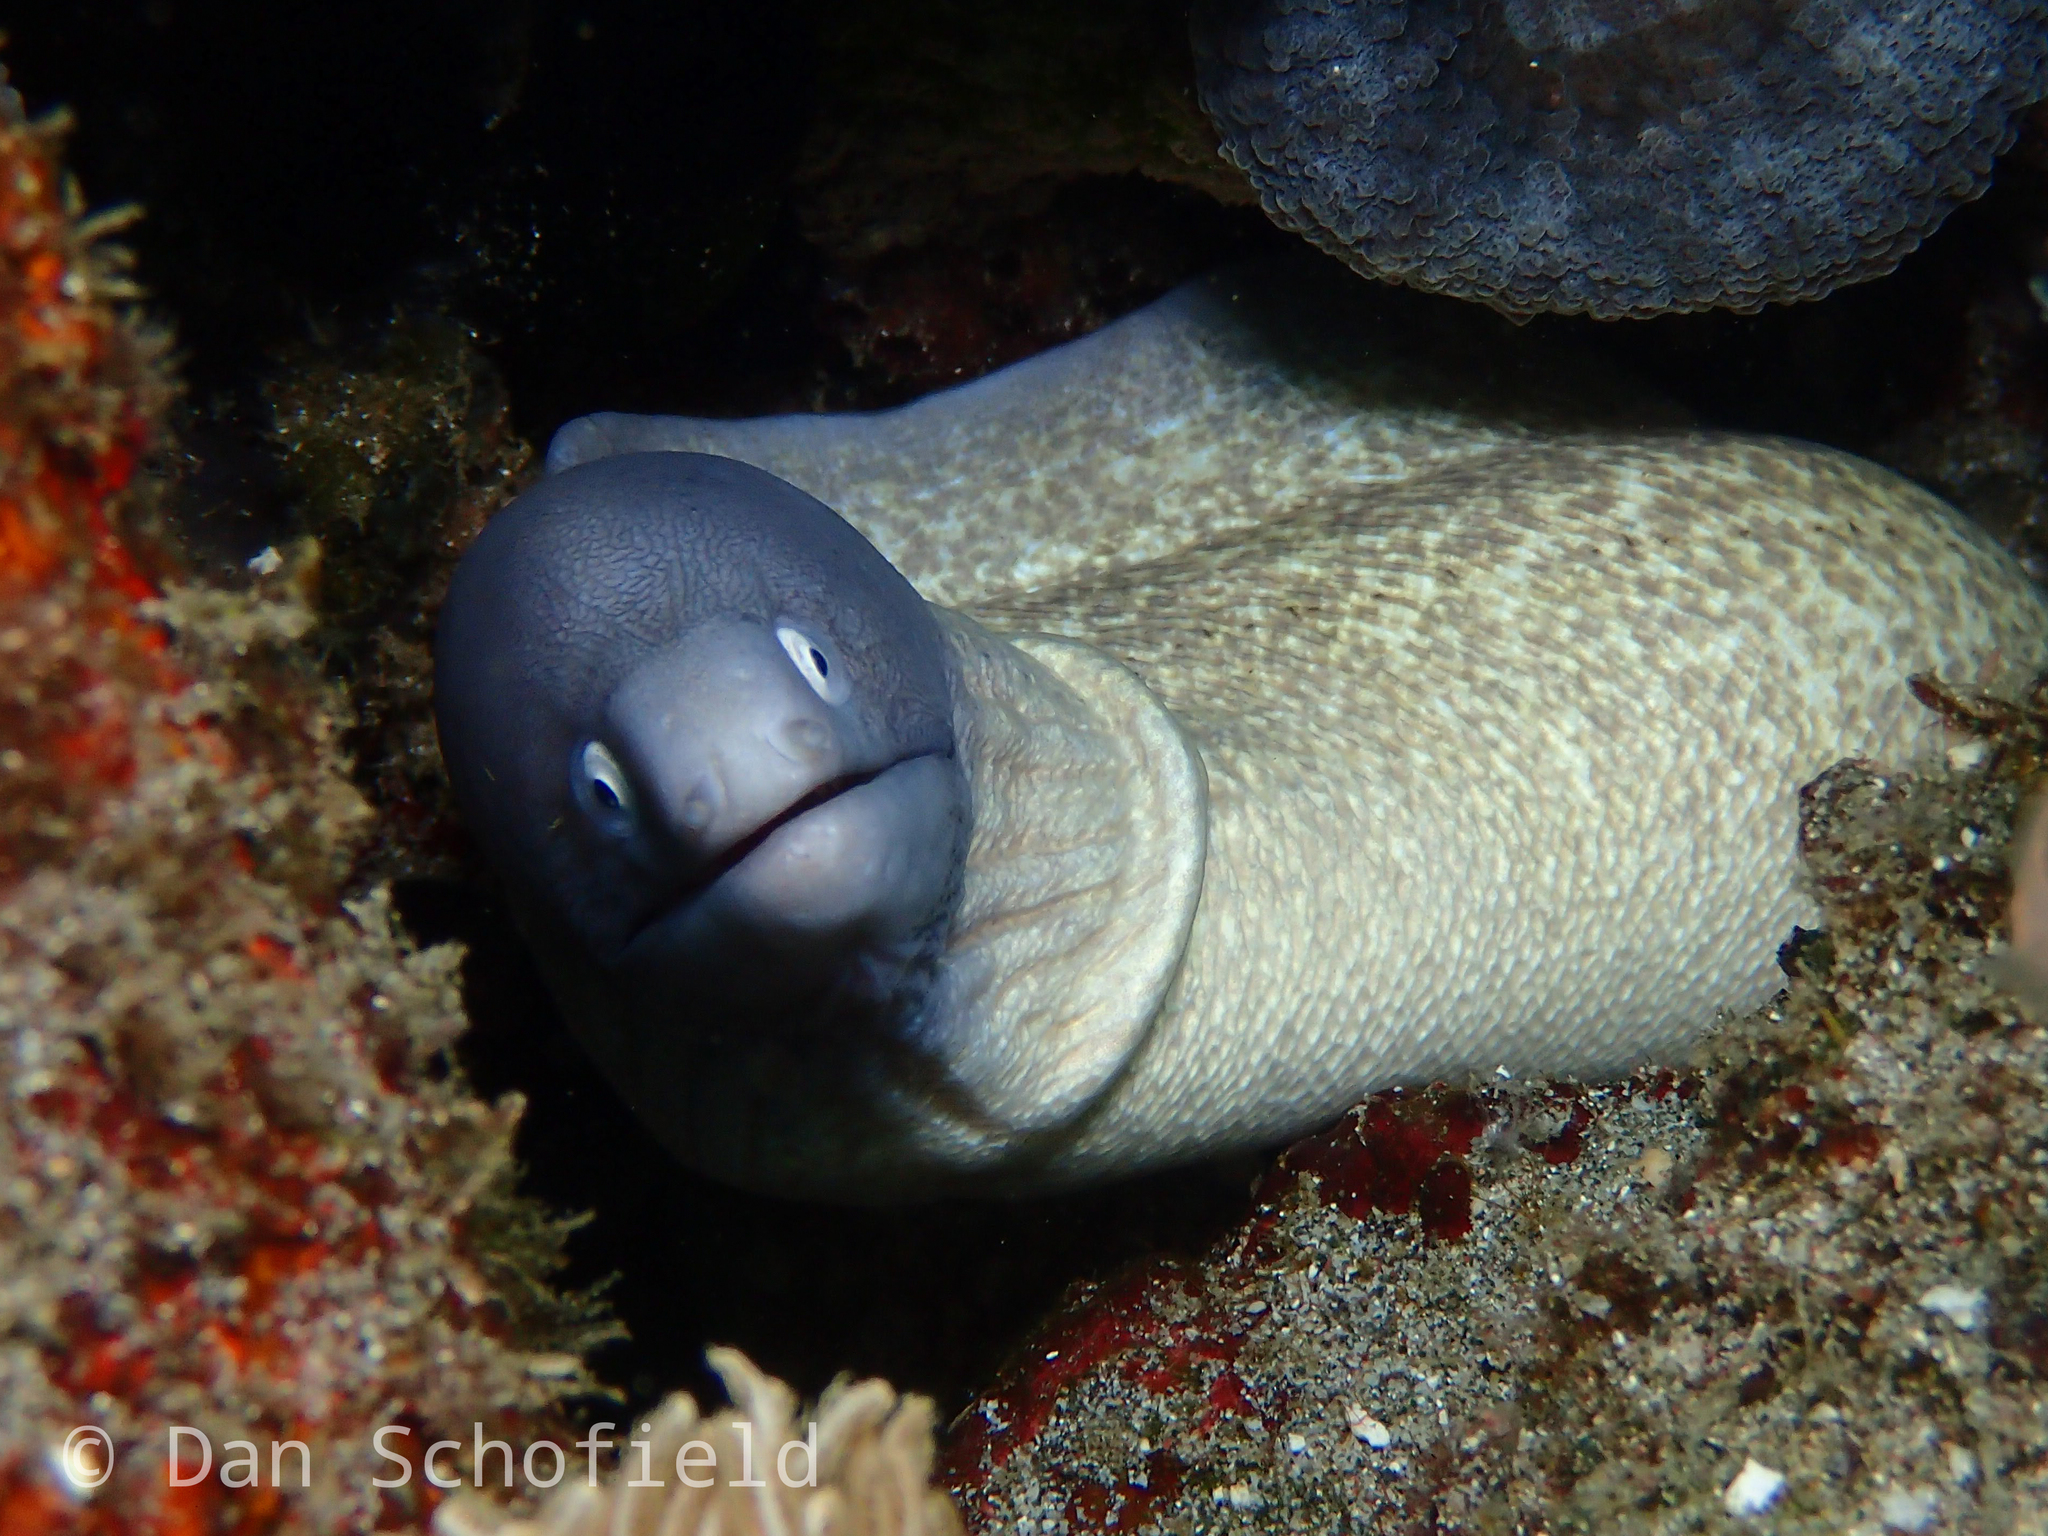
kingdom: Animalia
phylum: Chordata
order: Anguilliformes
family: Muraenidae
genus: Gymnothorax
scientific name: Gymnothorax thyrsoideus
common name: Greyface moray
